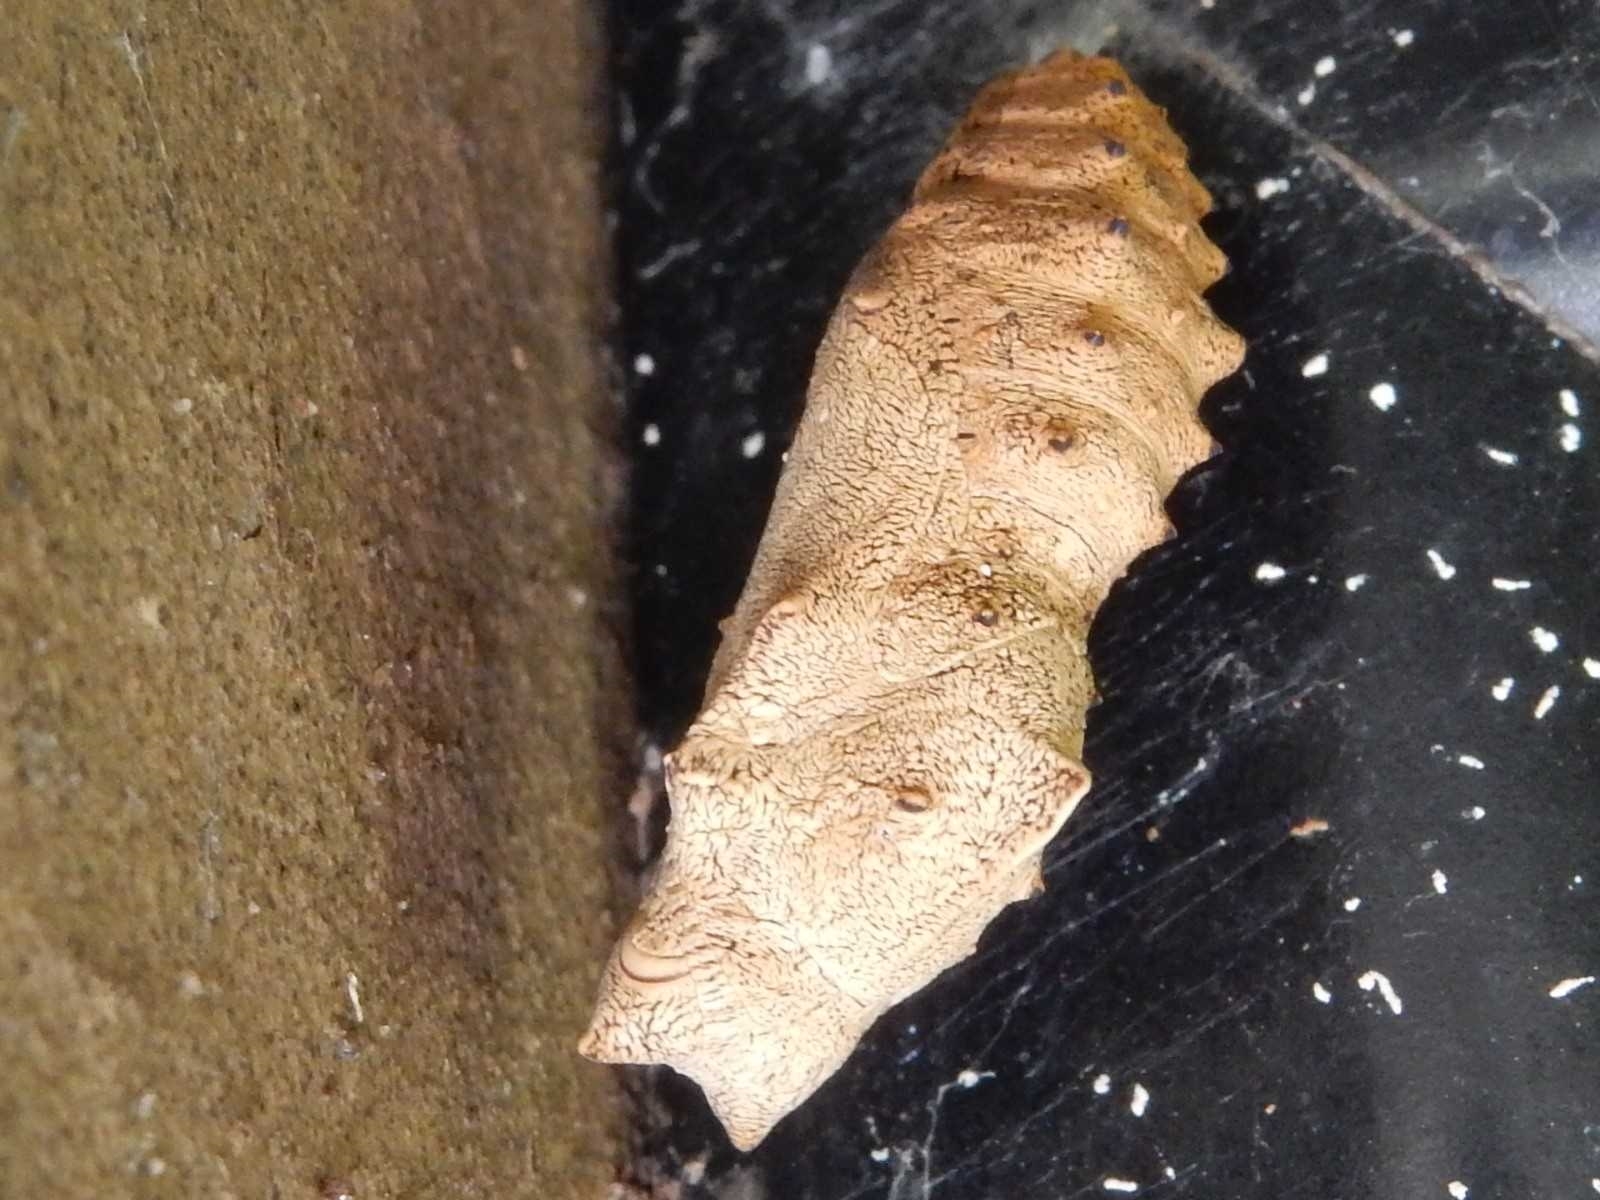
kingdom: Animalia
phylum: Arthropoda
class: Insecta
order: Lepidoptera
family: Nymphalidae
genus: Vanessa
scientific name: Vanessa itea
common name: Yellow admiral
